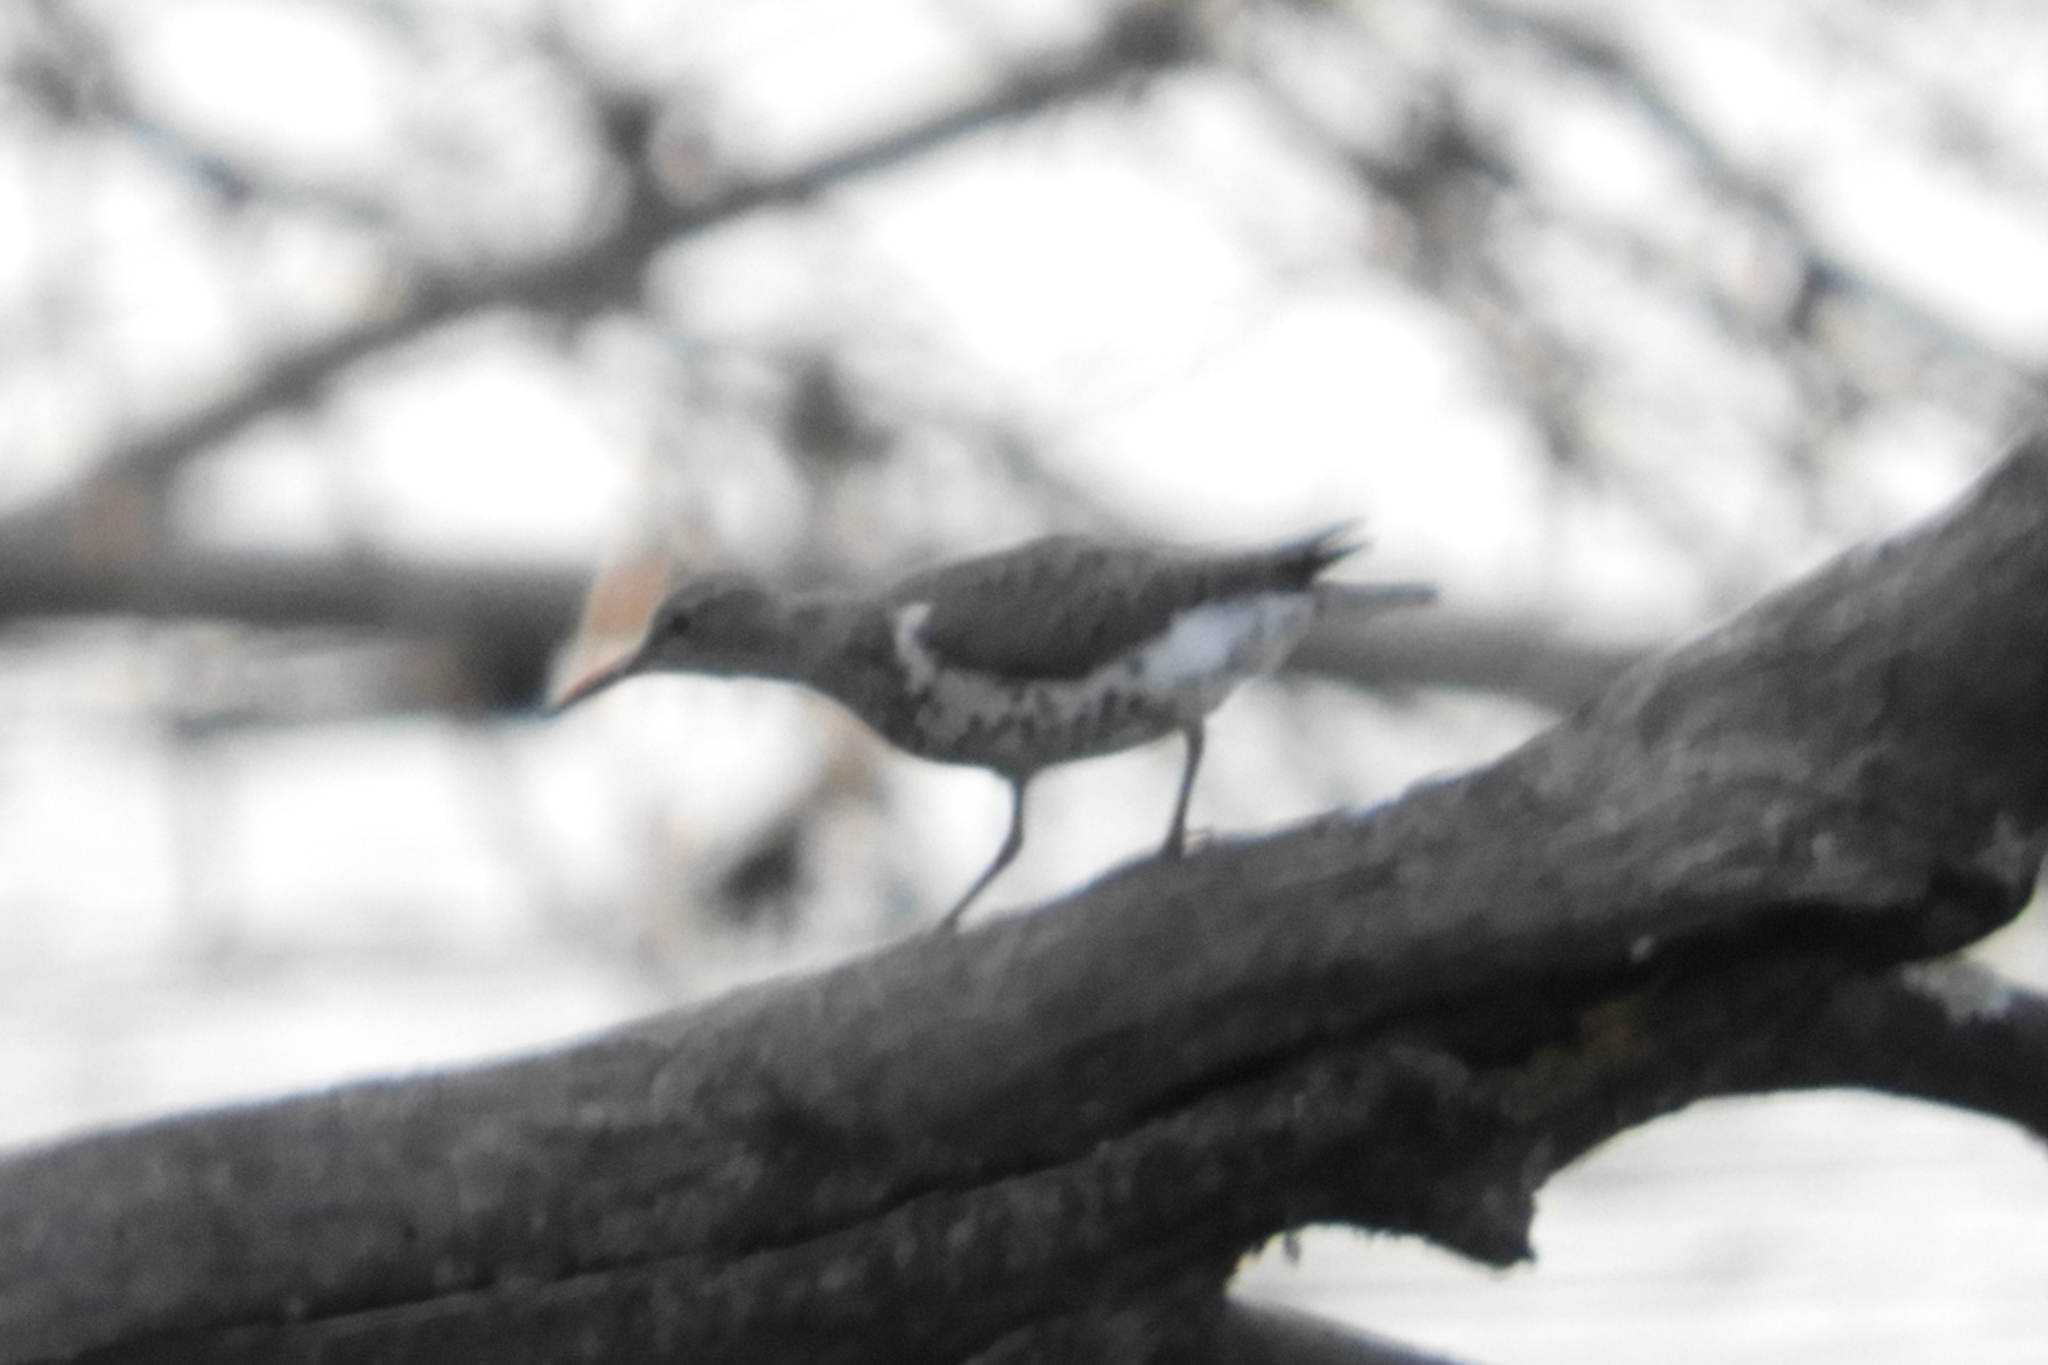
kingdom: Animalia
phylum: Chordata
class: Aves
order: Charadriiformes
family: Scolopacidae
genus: Actitis
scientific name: Actitis macularius
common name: Spotted sandpiper
